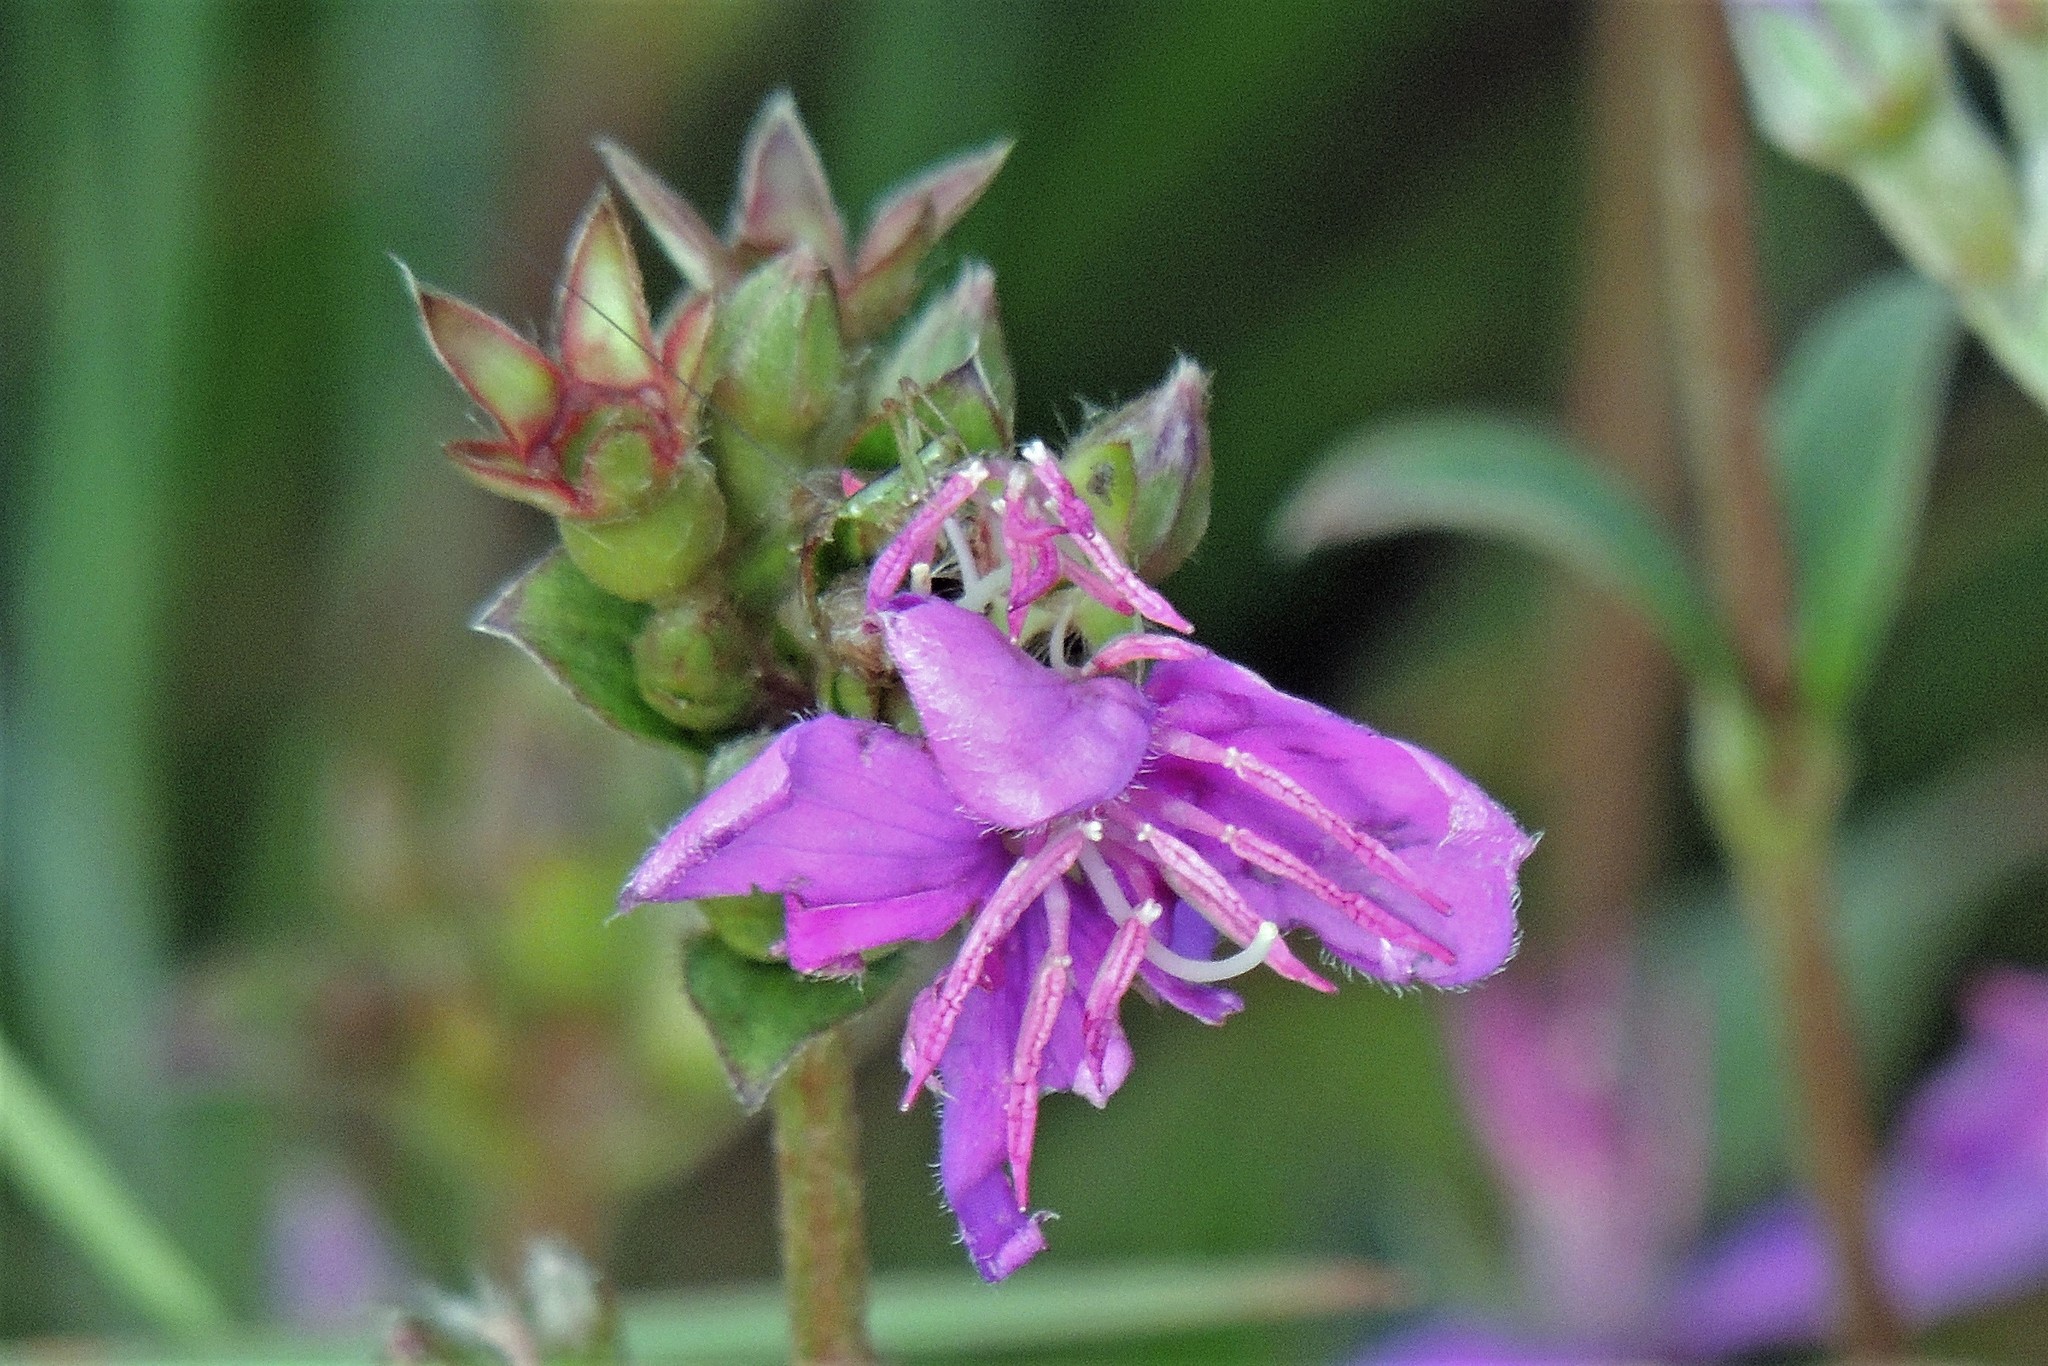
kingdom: Plantae
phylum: Tracheophyta
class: Magnoliopsida
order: Myrtales
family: Melastomataceae
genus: Chaetogastra
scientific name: Chaetogastra gracilis
